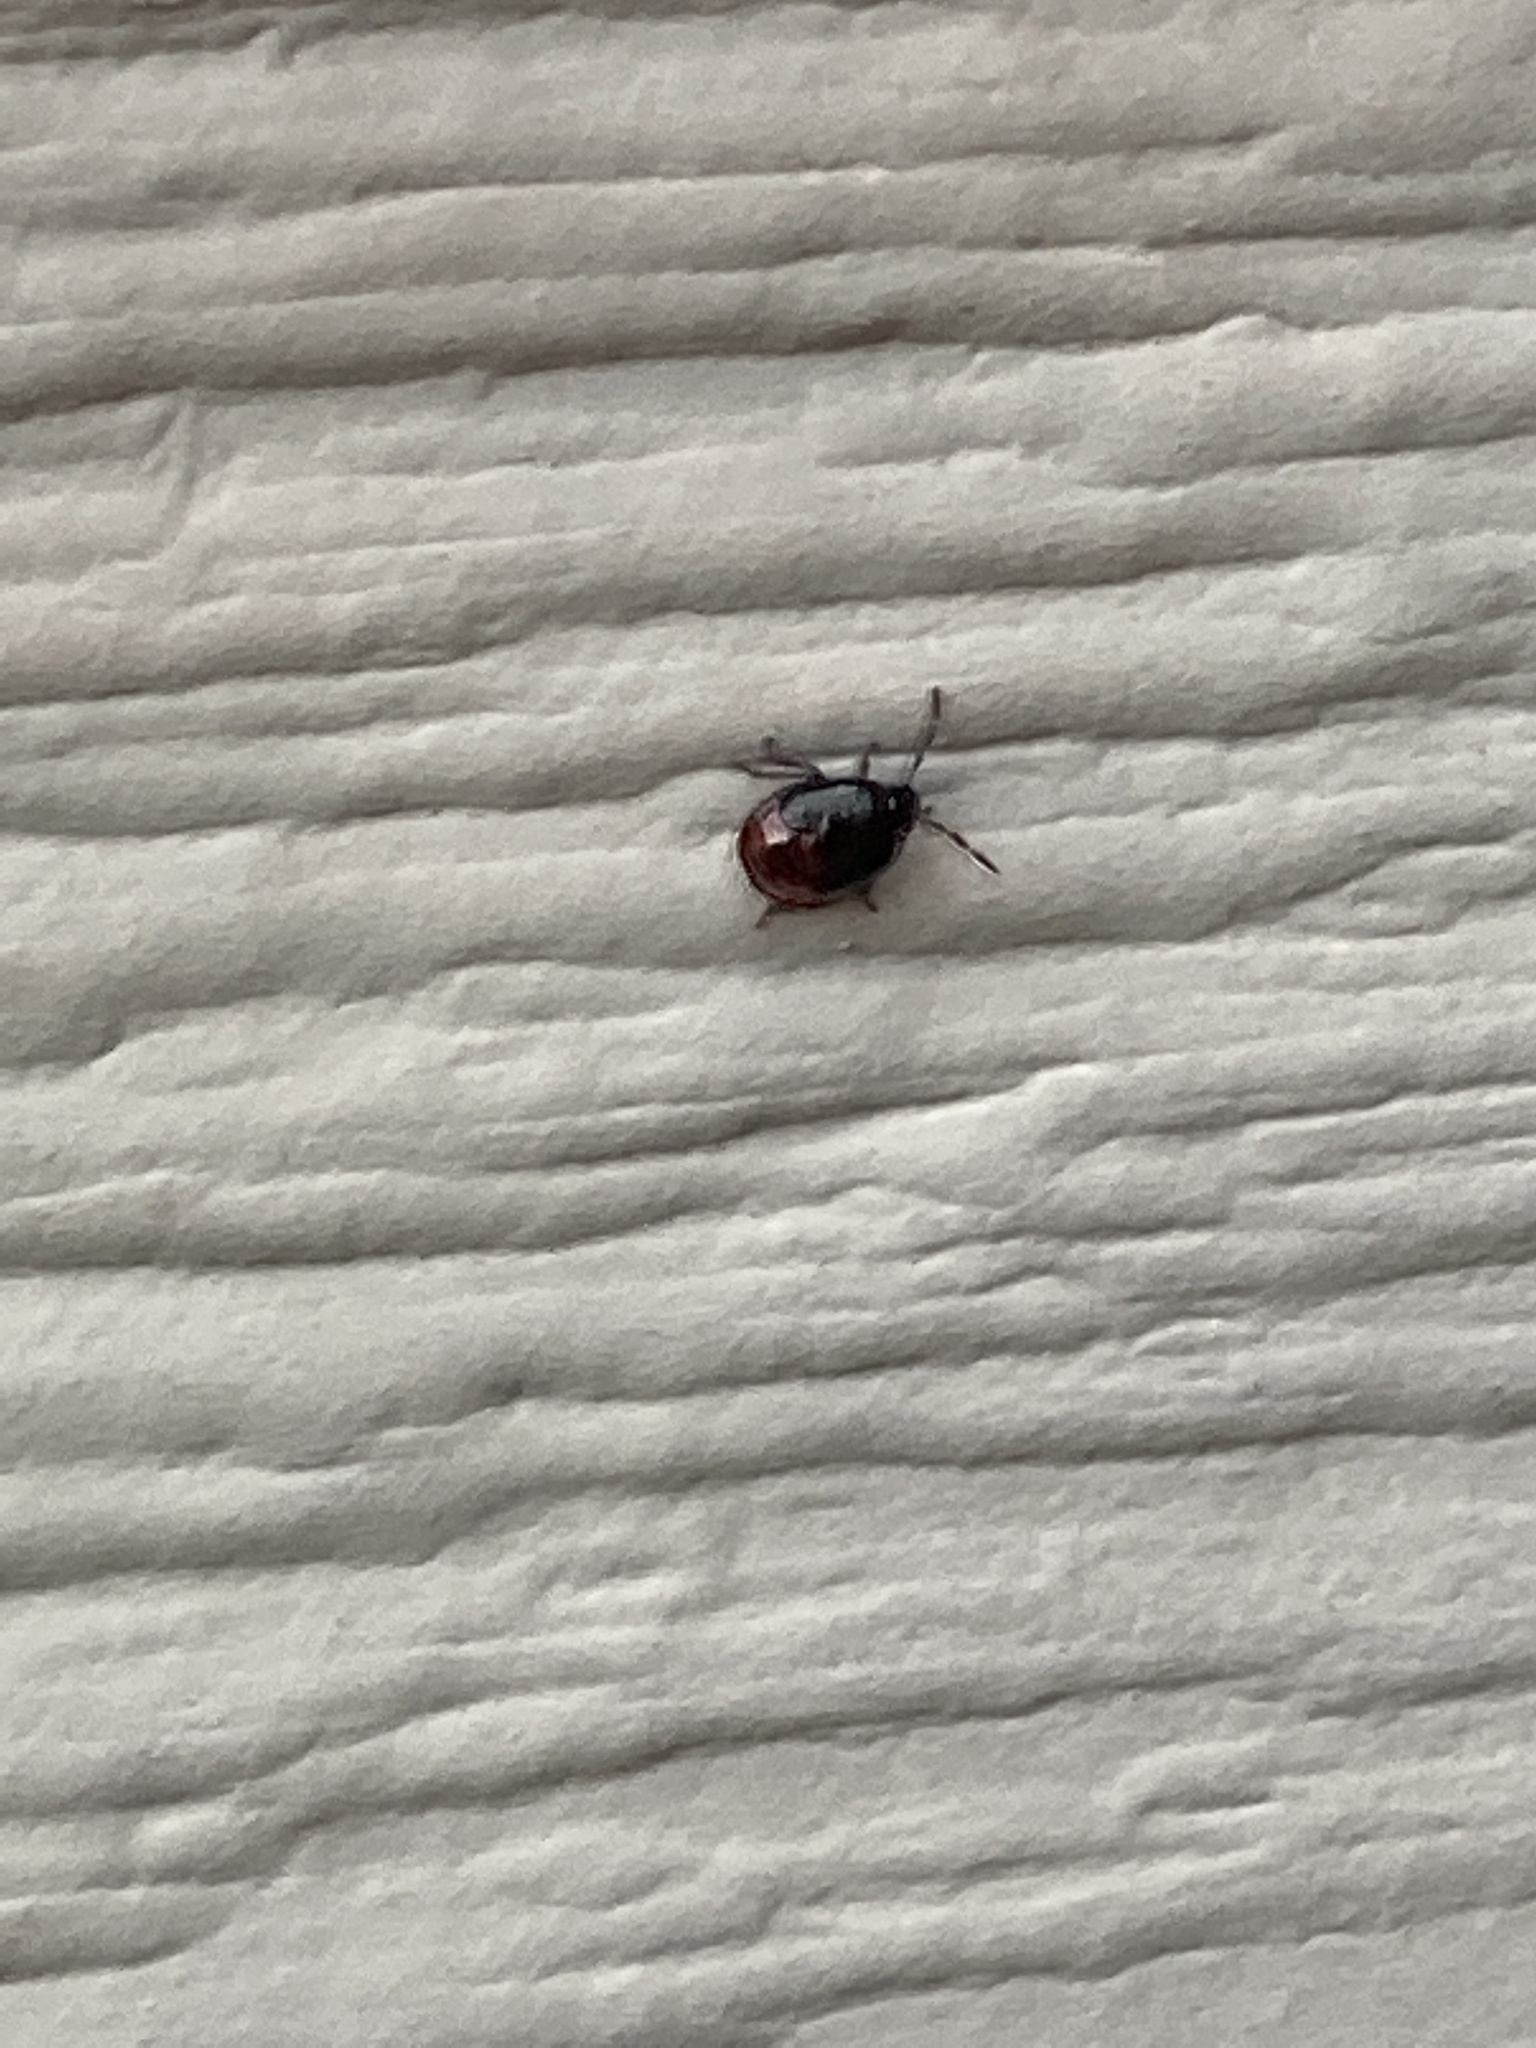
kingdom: Animalia
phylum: Arthropoda
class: Insecta
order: Hemiptera
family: Cydnidae
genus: Sehirus
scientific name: Sehirus cinctus
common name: White-margined burrower bug
